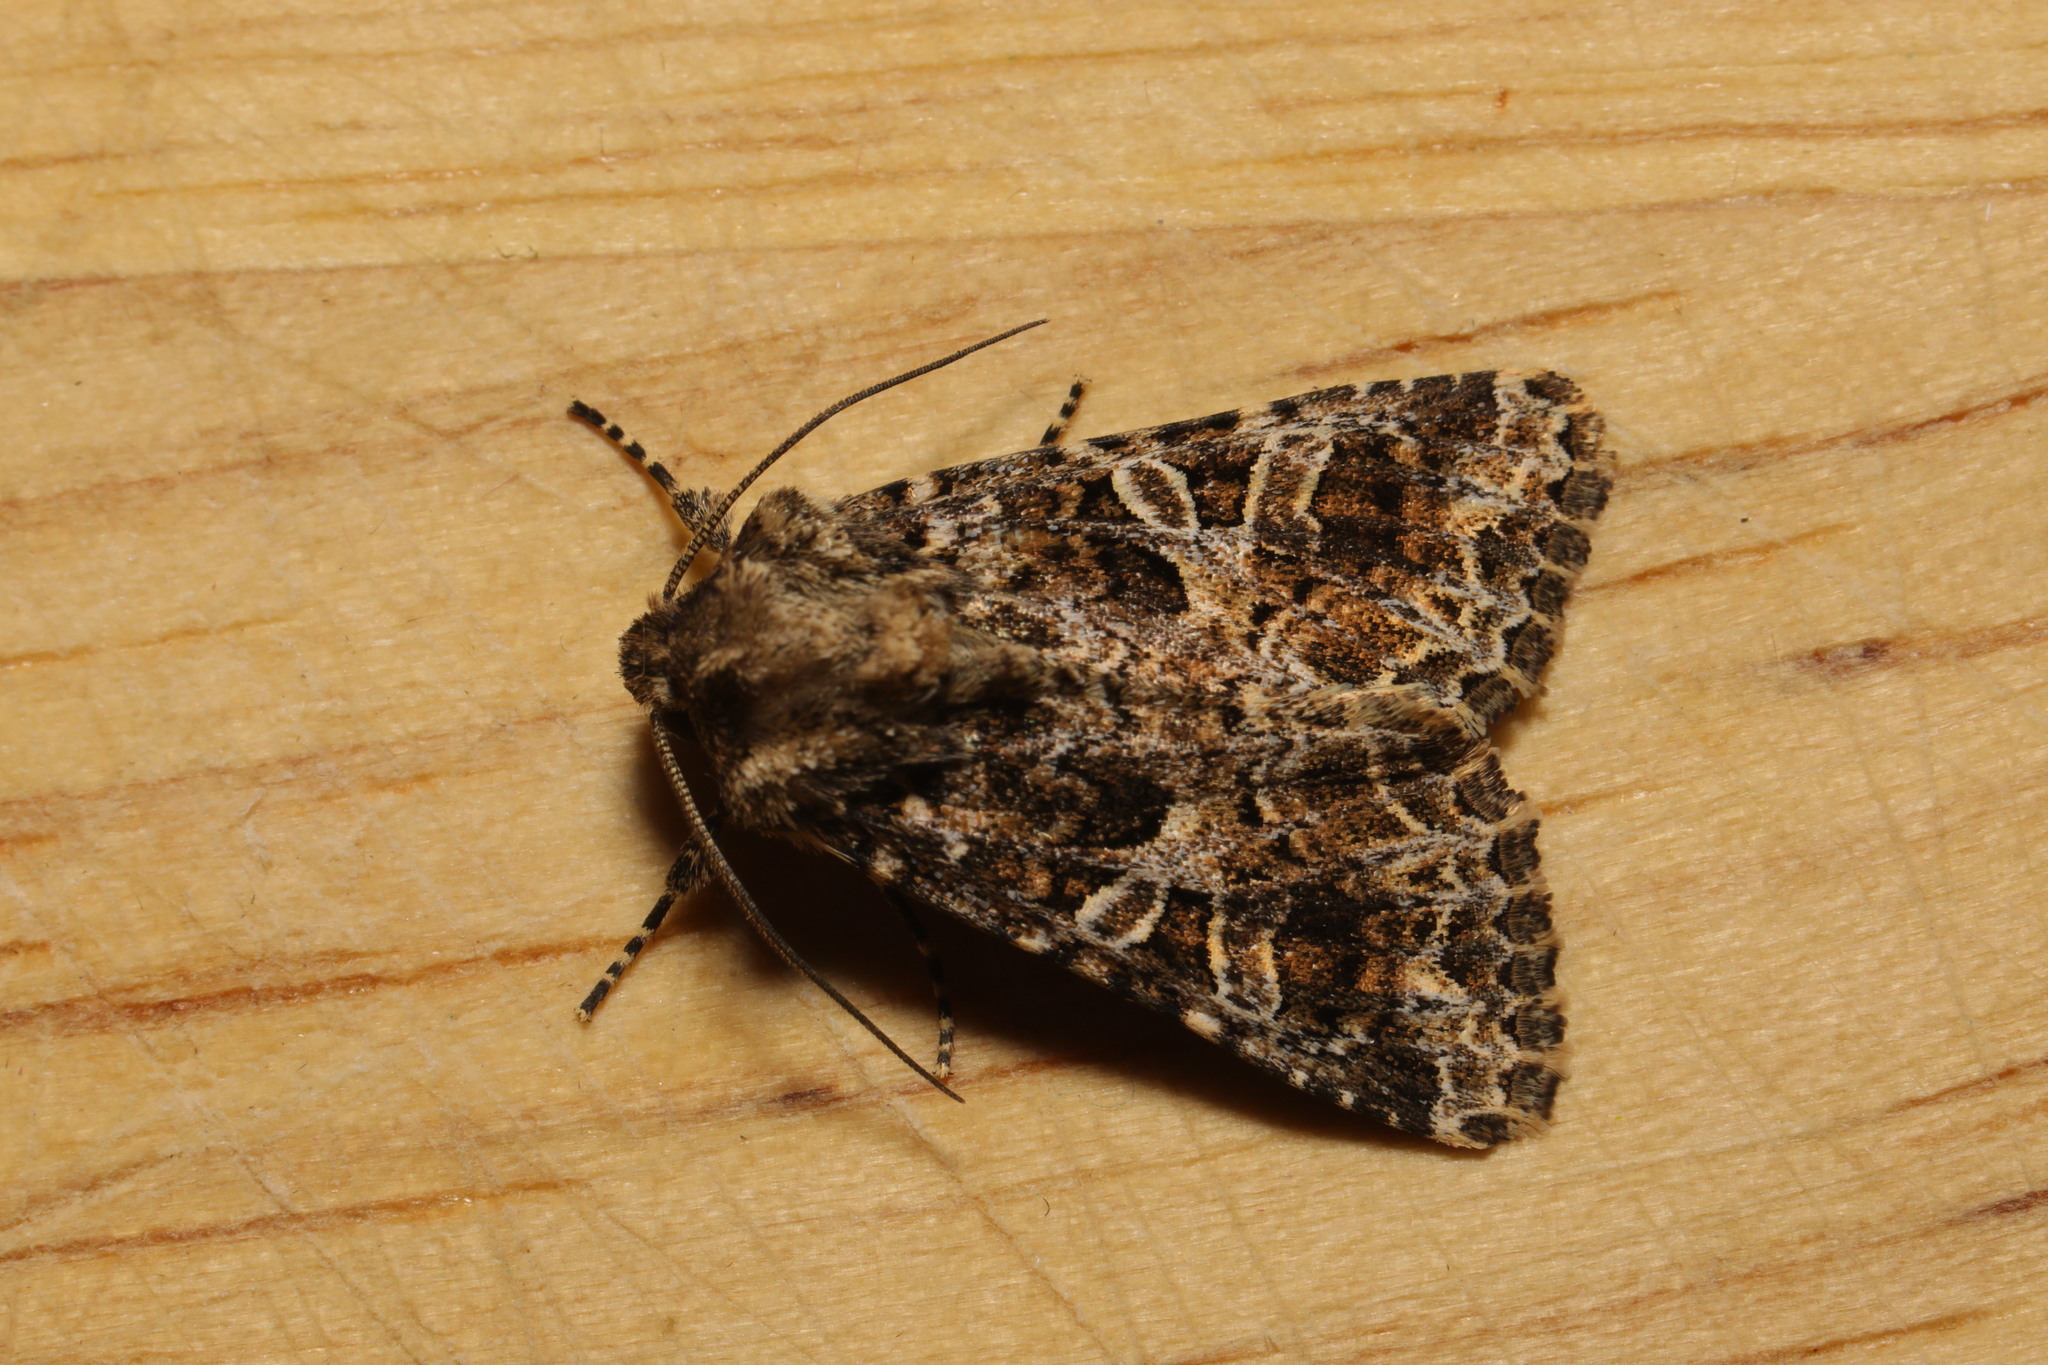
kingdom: Animalia
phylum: Arthropoda
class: Insecta
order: Lepidoptera
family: Noctuidae
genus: Hadena
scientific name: Hadena bicruris
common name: Lychnis
